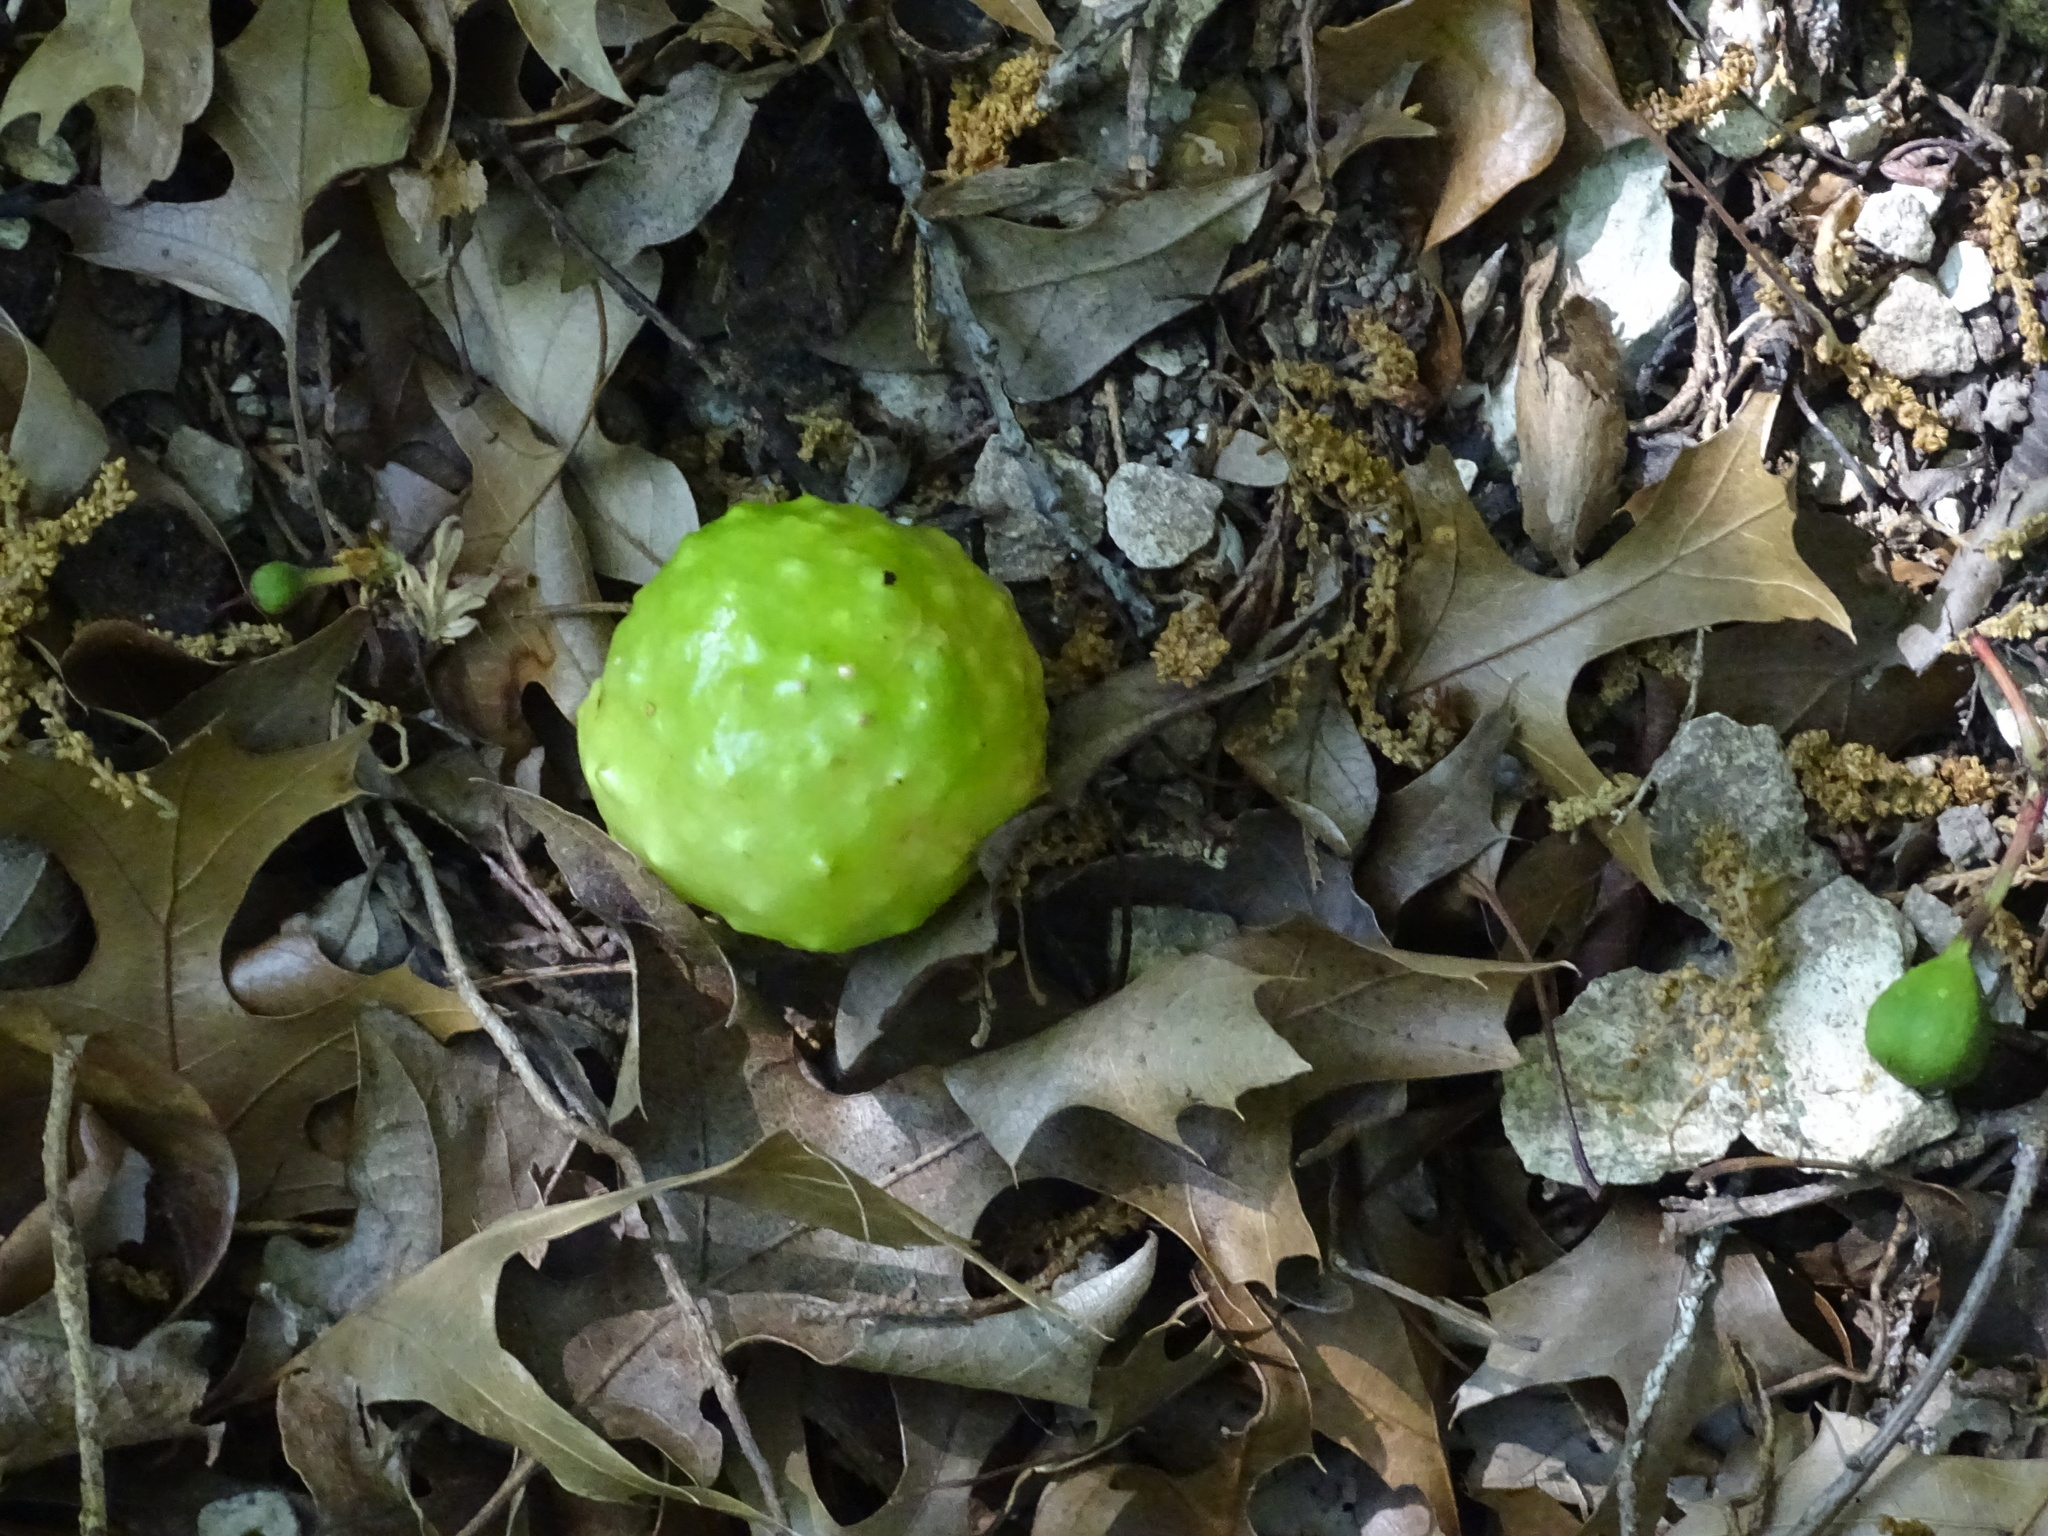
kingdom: Animalia
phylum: Arthropoda
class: Insecta
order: Hymenoptera
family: Cynipidae
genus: Amphibolips
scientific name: Amphibolips
